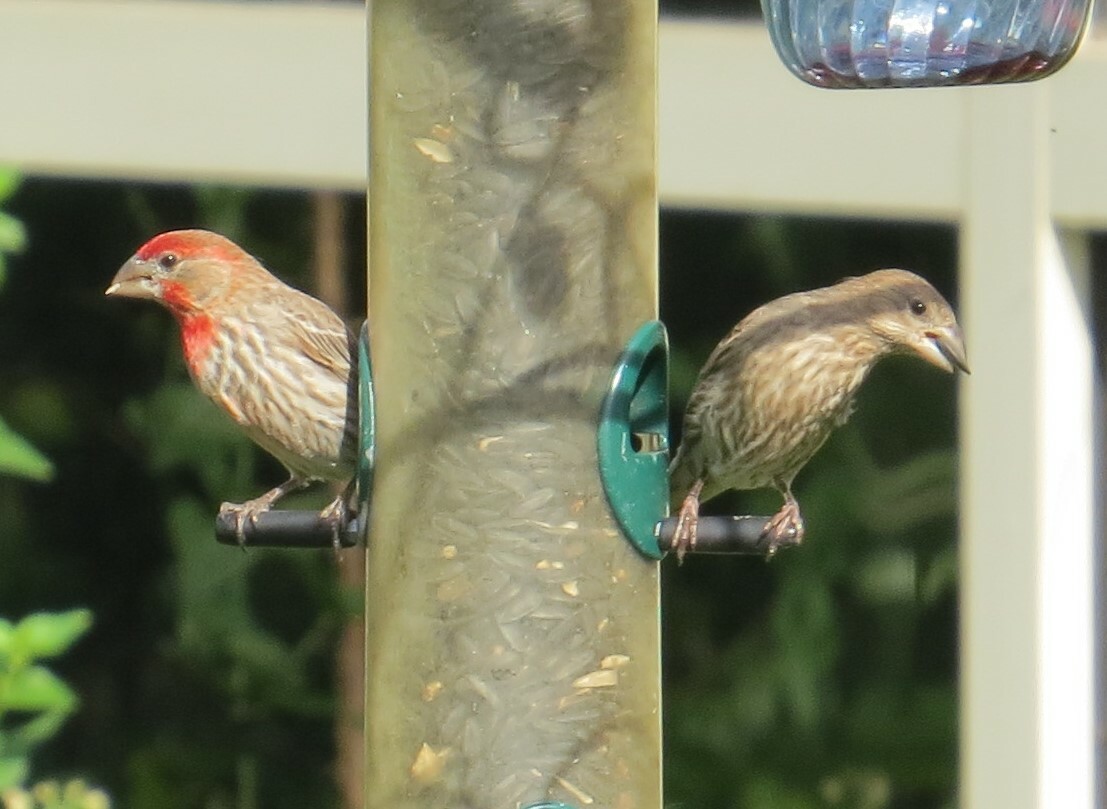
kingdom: Animalia
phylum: Chordata
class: Aves
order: Passeriformes
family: Fringillidae
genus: Haemorhous
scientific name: Haemorhous mexicanus
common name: House finch
